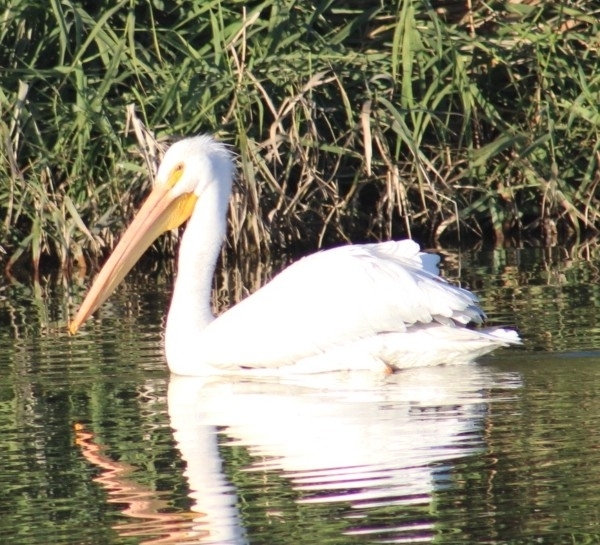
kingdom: Animalia
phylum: Chordata
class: Aves
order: Pelecaniformes
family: Pelecanidae
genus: Pelecanus
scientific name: Pelecanus erythrorhynchos
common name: American white pelican
